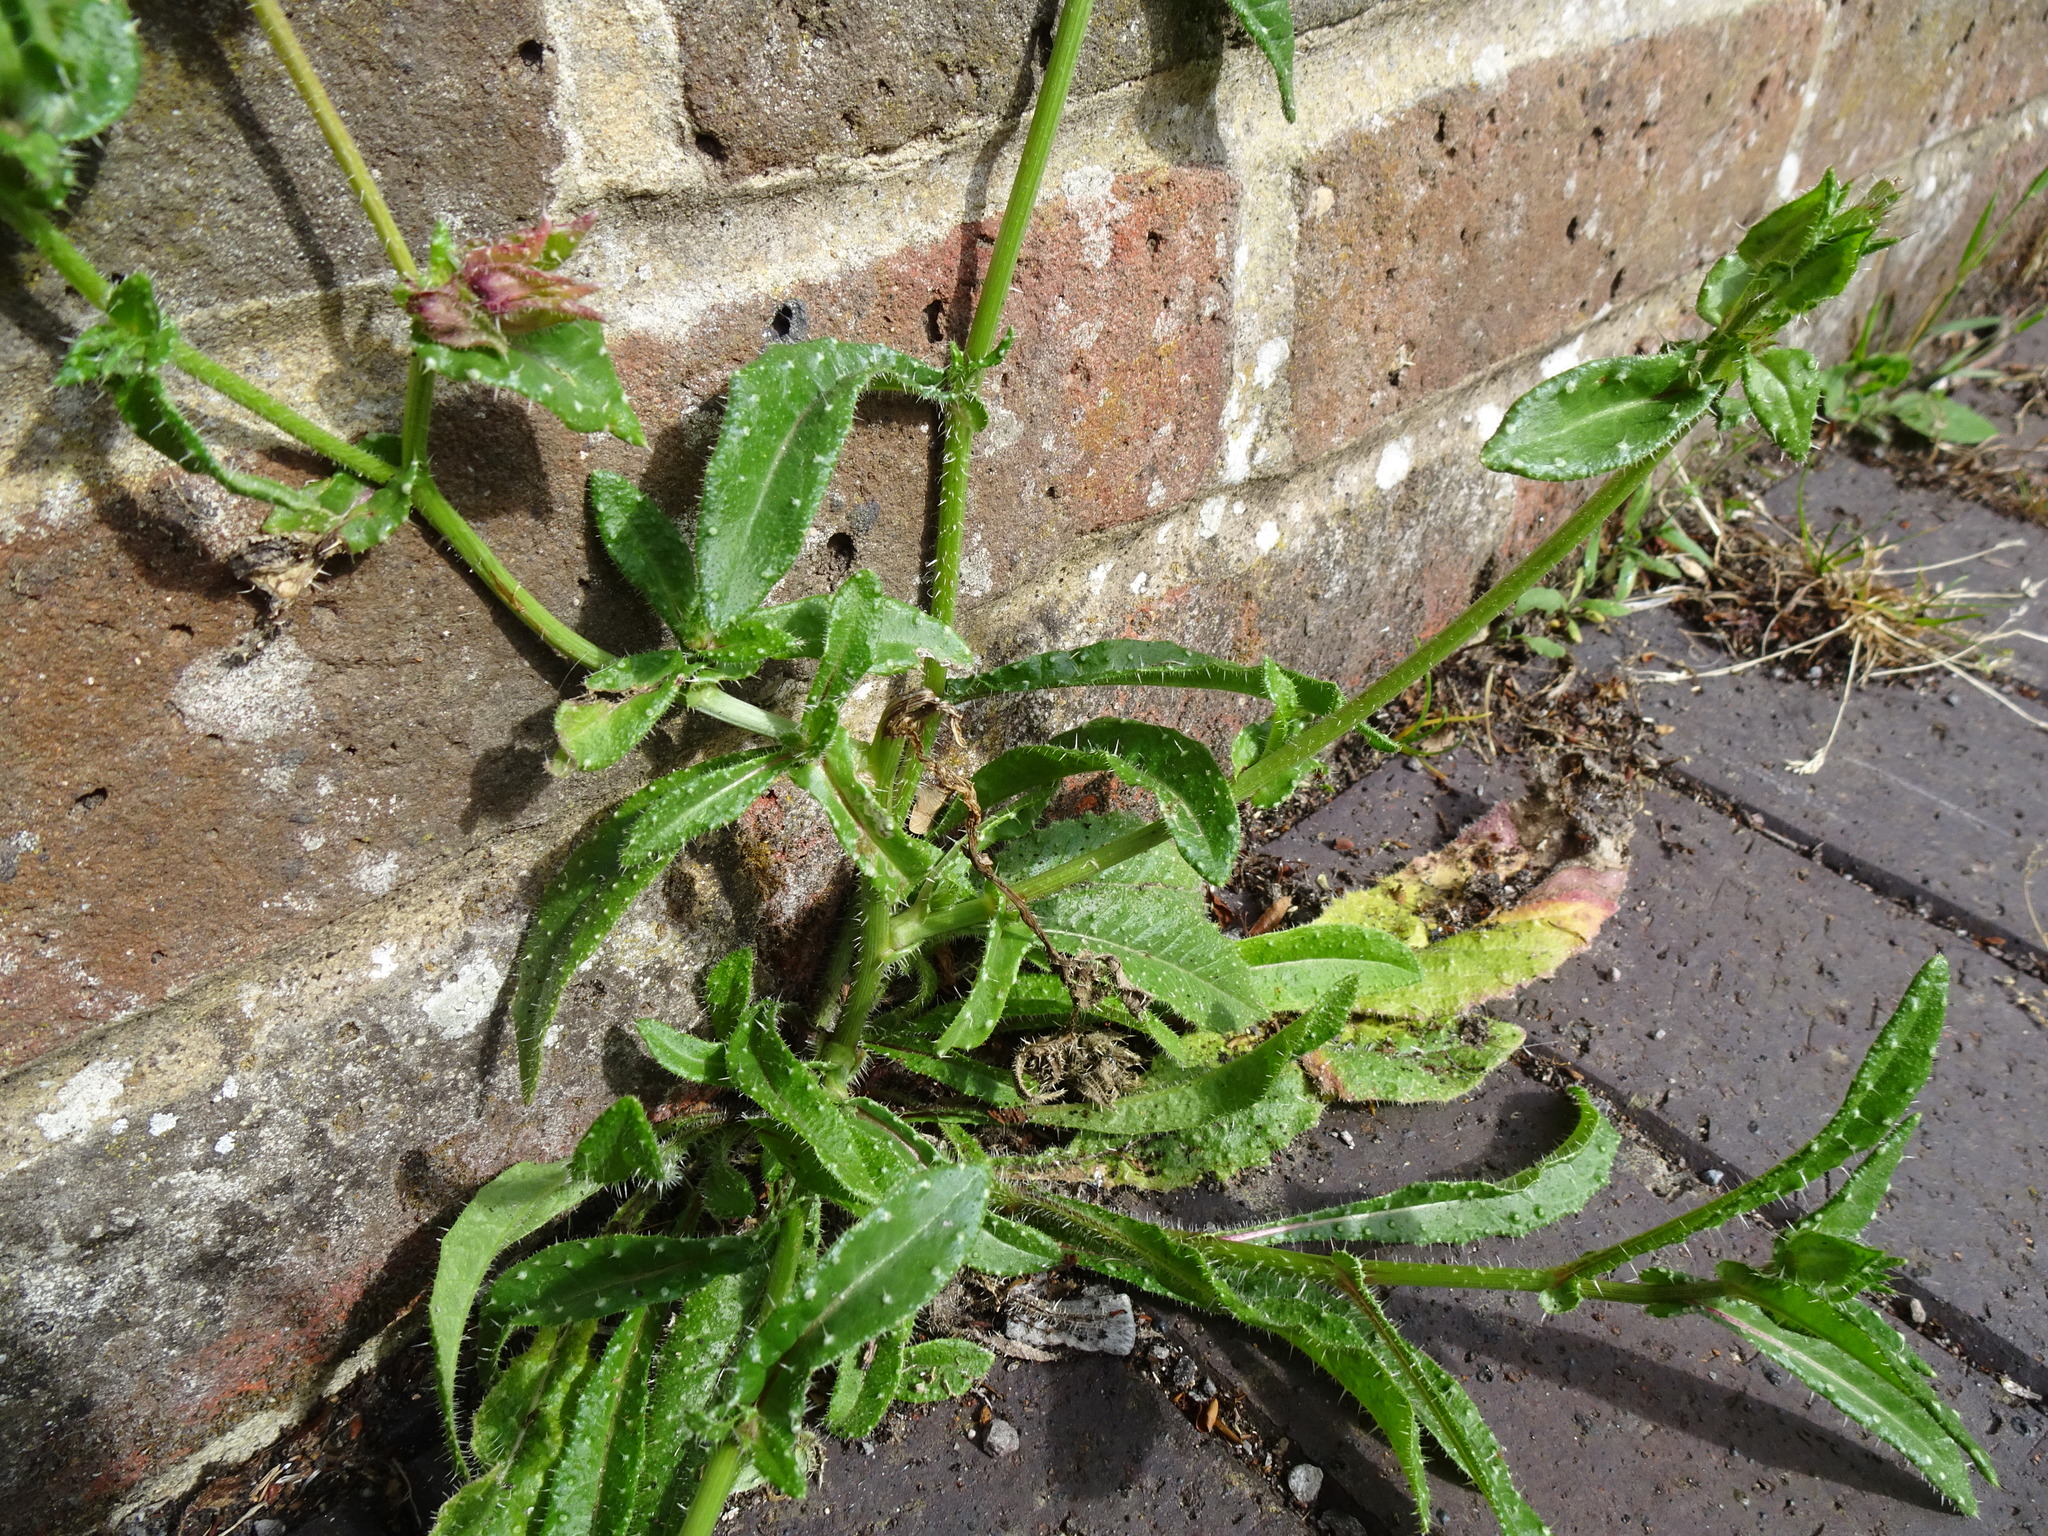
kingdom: Plantae
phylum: Tracheophyta
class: Magnoliopsida
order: Asterales
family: Asteraceae
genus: Helminthotheca
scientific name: Helminthotheca echioides
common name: Ox-tongue
